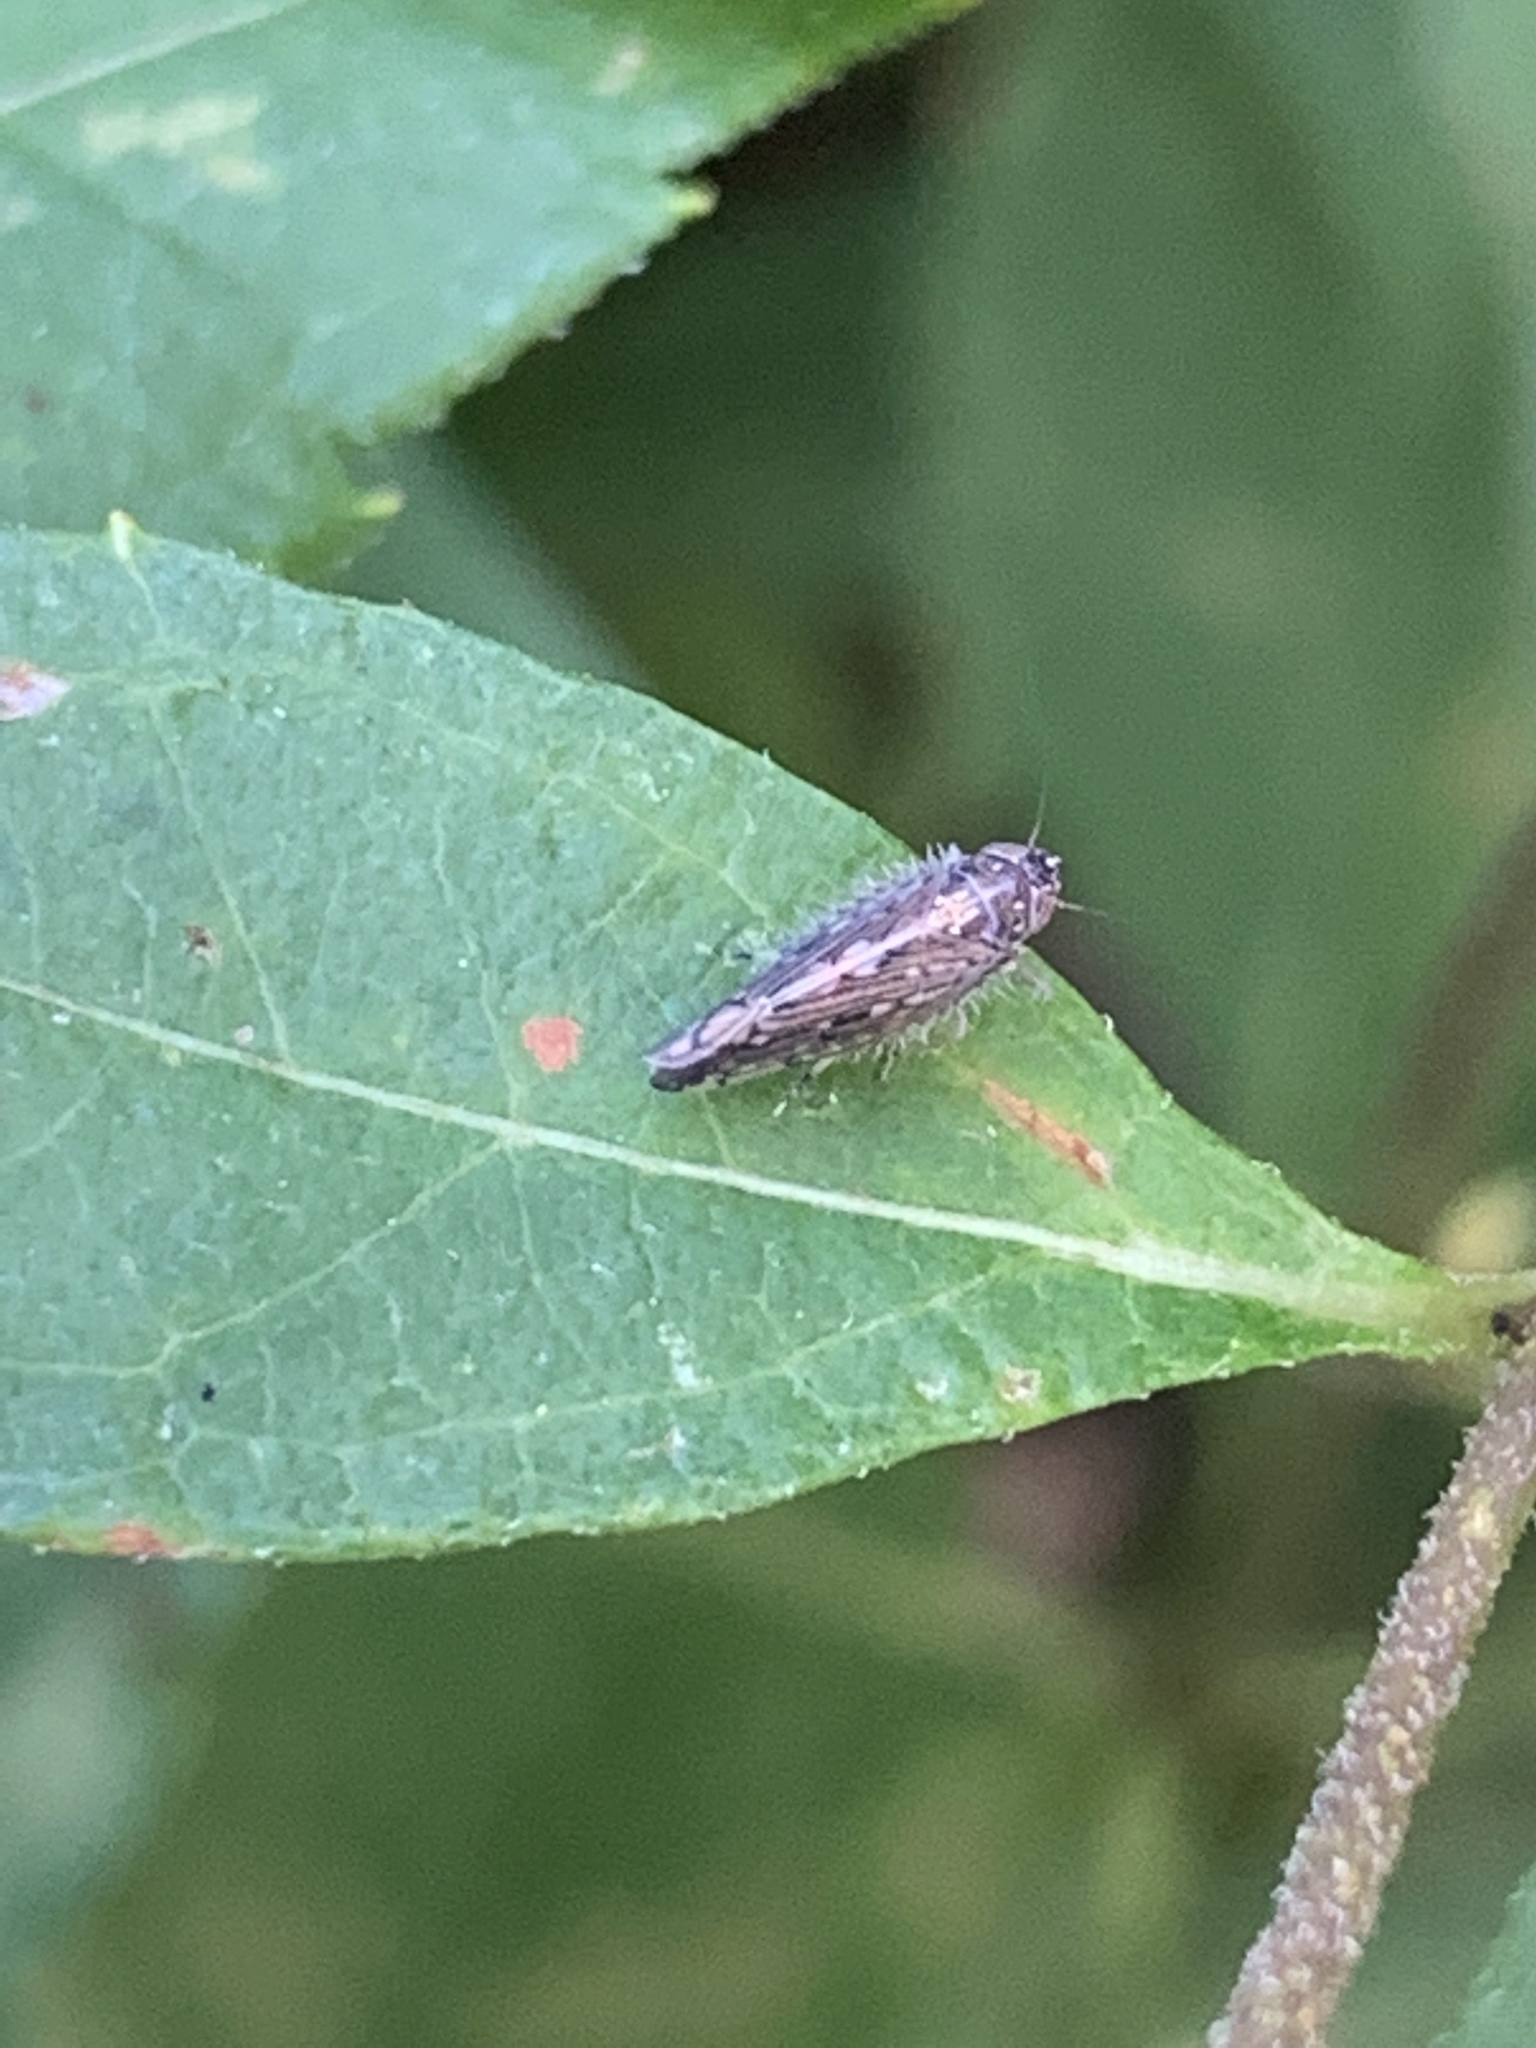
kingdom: Animalia
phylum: Arthropoda
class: Insecta
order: Hemiptera
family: Cicadellidae
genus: Osbornellus
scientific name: Osbornellus clarus
